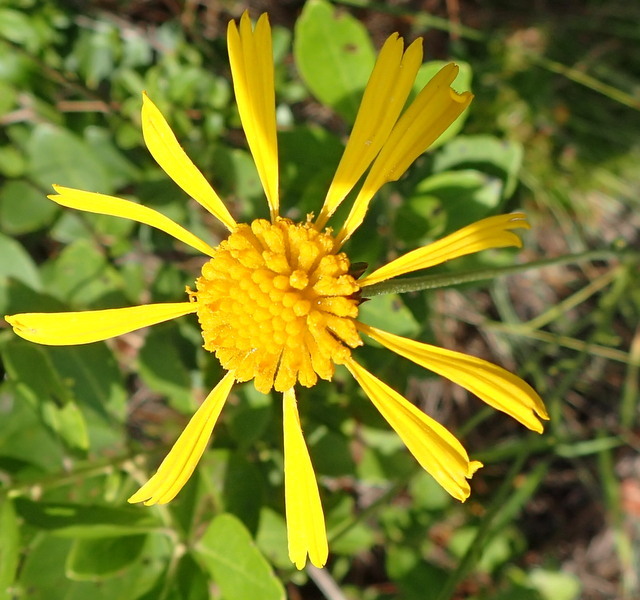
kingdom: Plantae
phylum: Tracheophyta
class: Magnoliopsida
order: Asterales
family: Asteraceae
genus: Balduina
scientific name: Balduina uniflora
